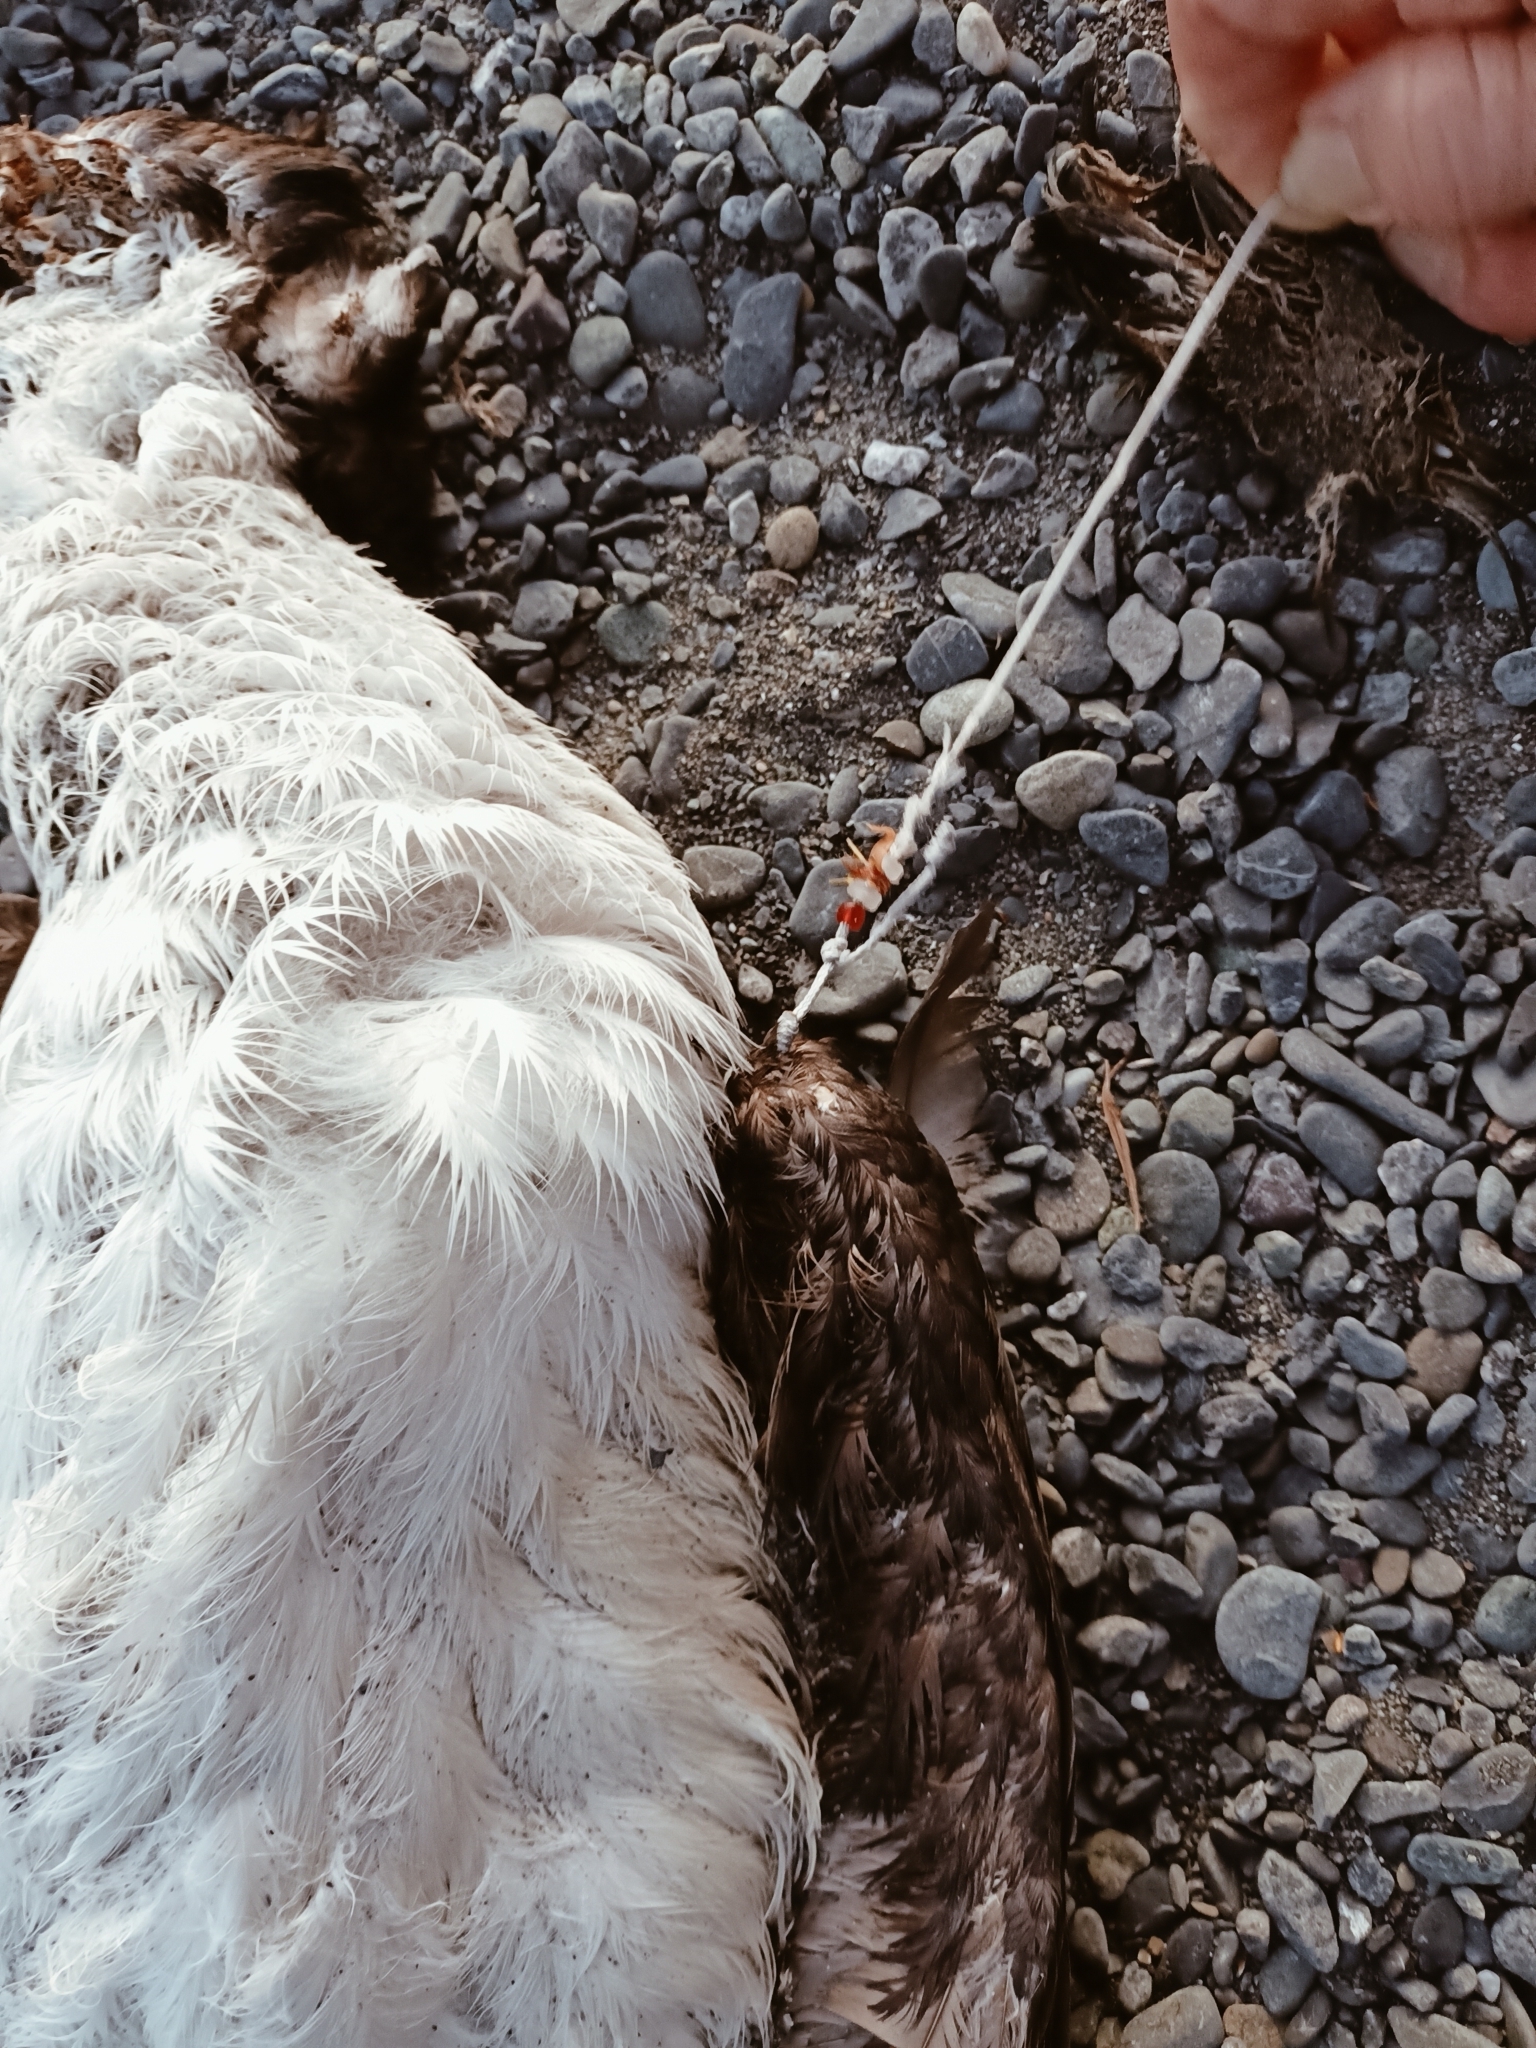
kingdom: Animalia
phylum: Chordata
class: Aves
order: Suliformes
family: Phalacrocoracidae
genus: Phalacrocorax
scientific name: Phalacrocorax varius
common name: Pied cormorant
